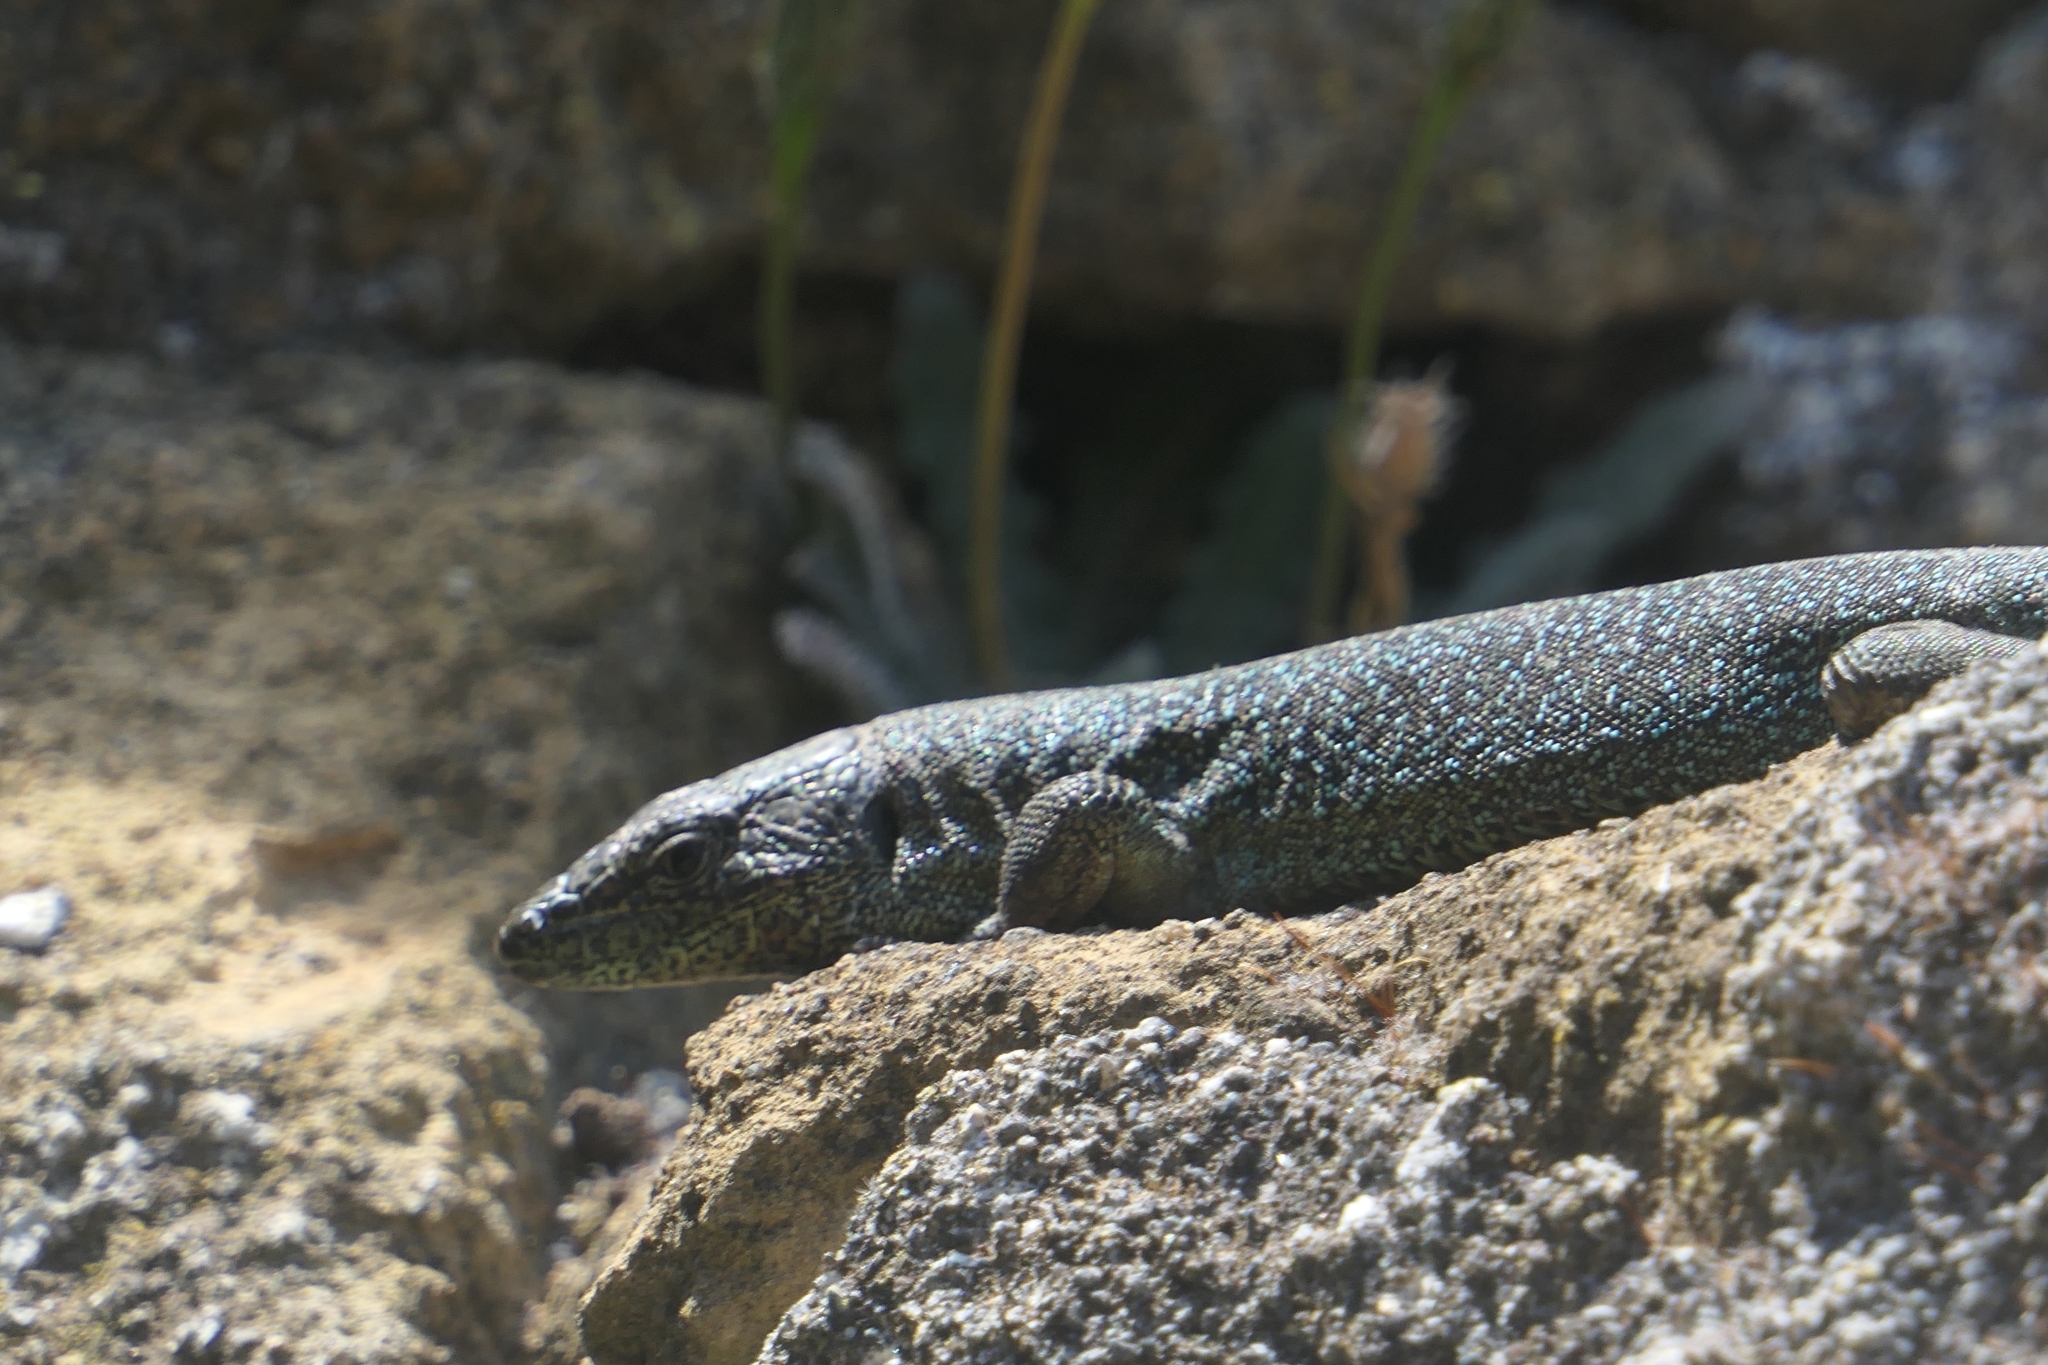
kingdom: Animalia
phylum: Chordata
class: Squamata
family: Lacertidae
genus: Teira
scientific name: Teira dugesii
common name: Madeira lizard
